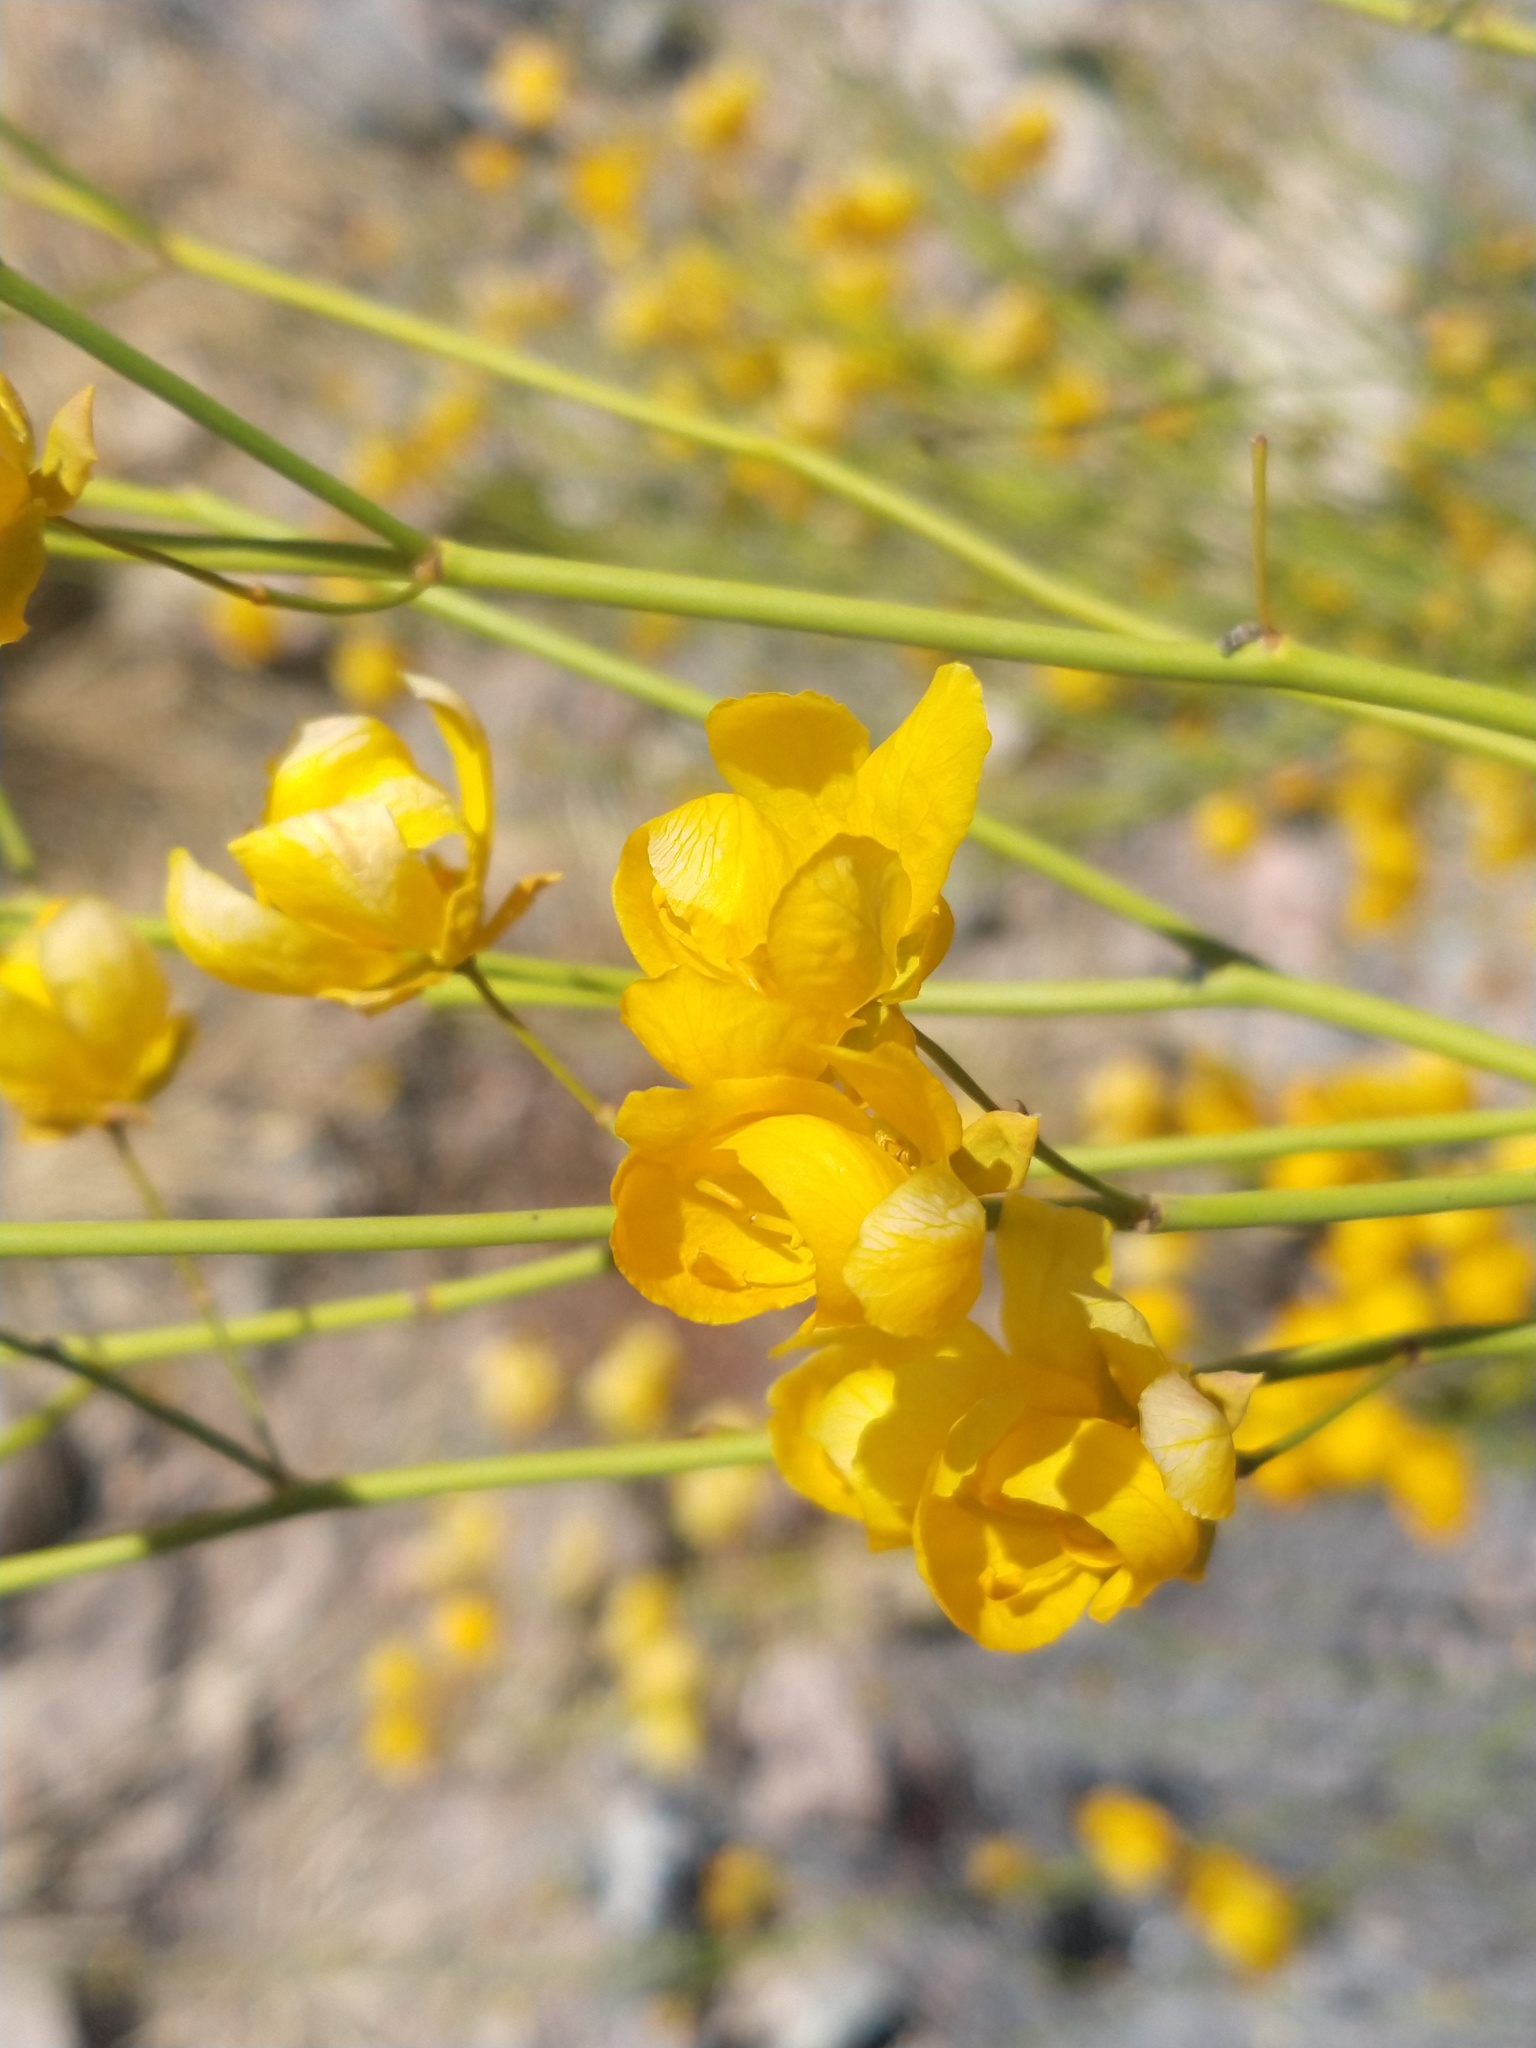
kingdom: Plantae
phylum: Tracheophyta
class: Magnoliopsida
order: Fabales
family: Fabaceae
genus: Senna
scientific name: Senna aphylla
